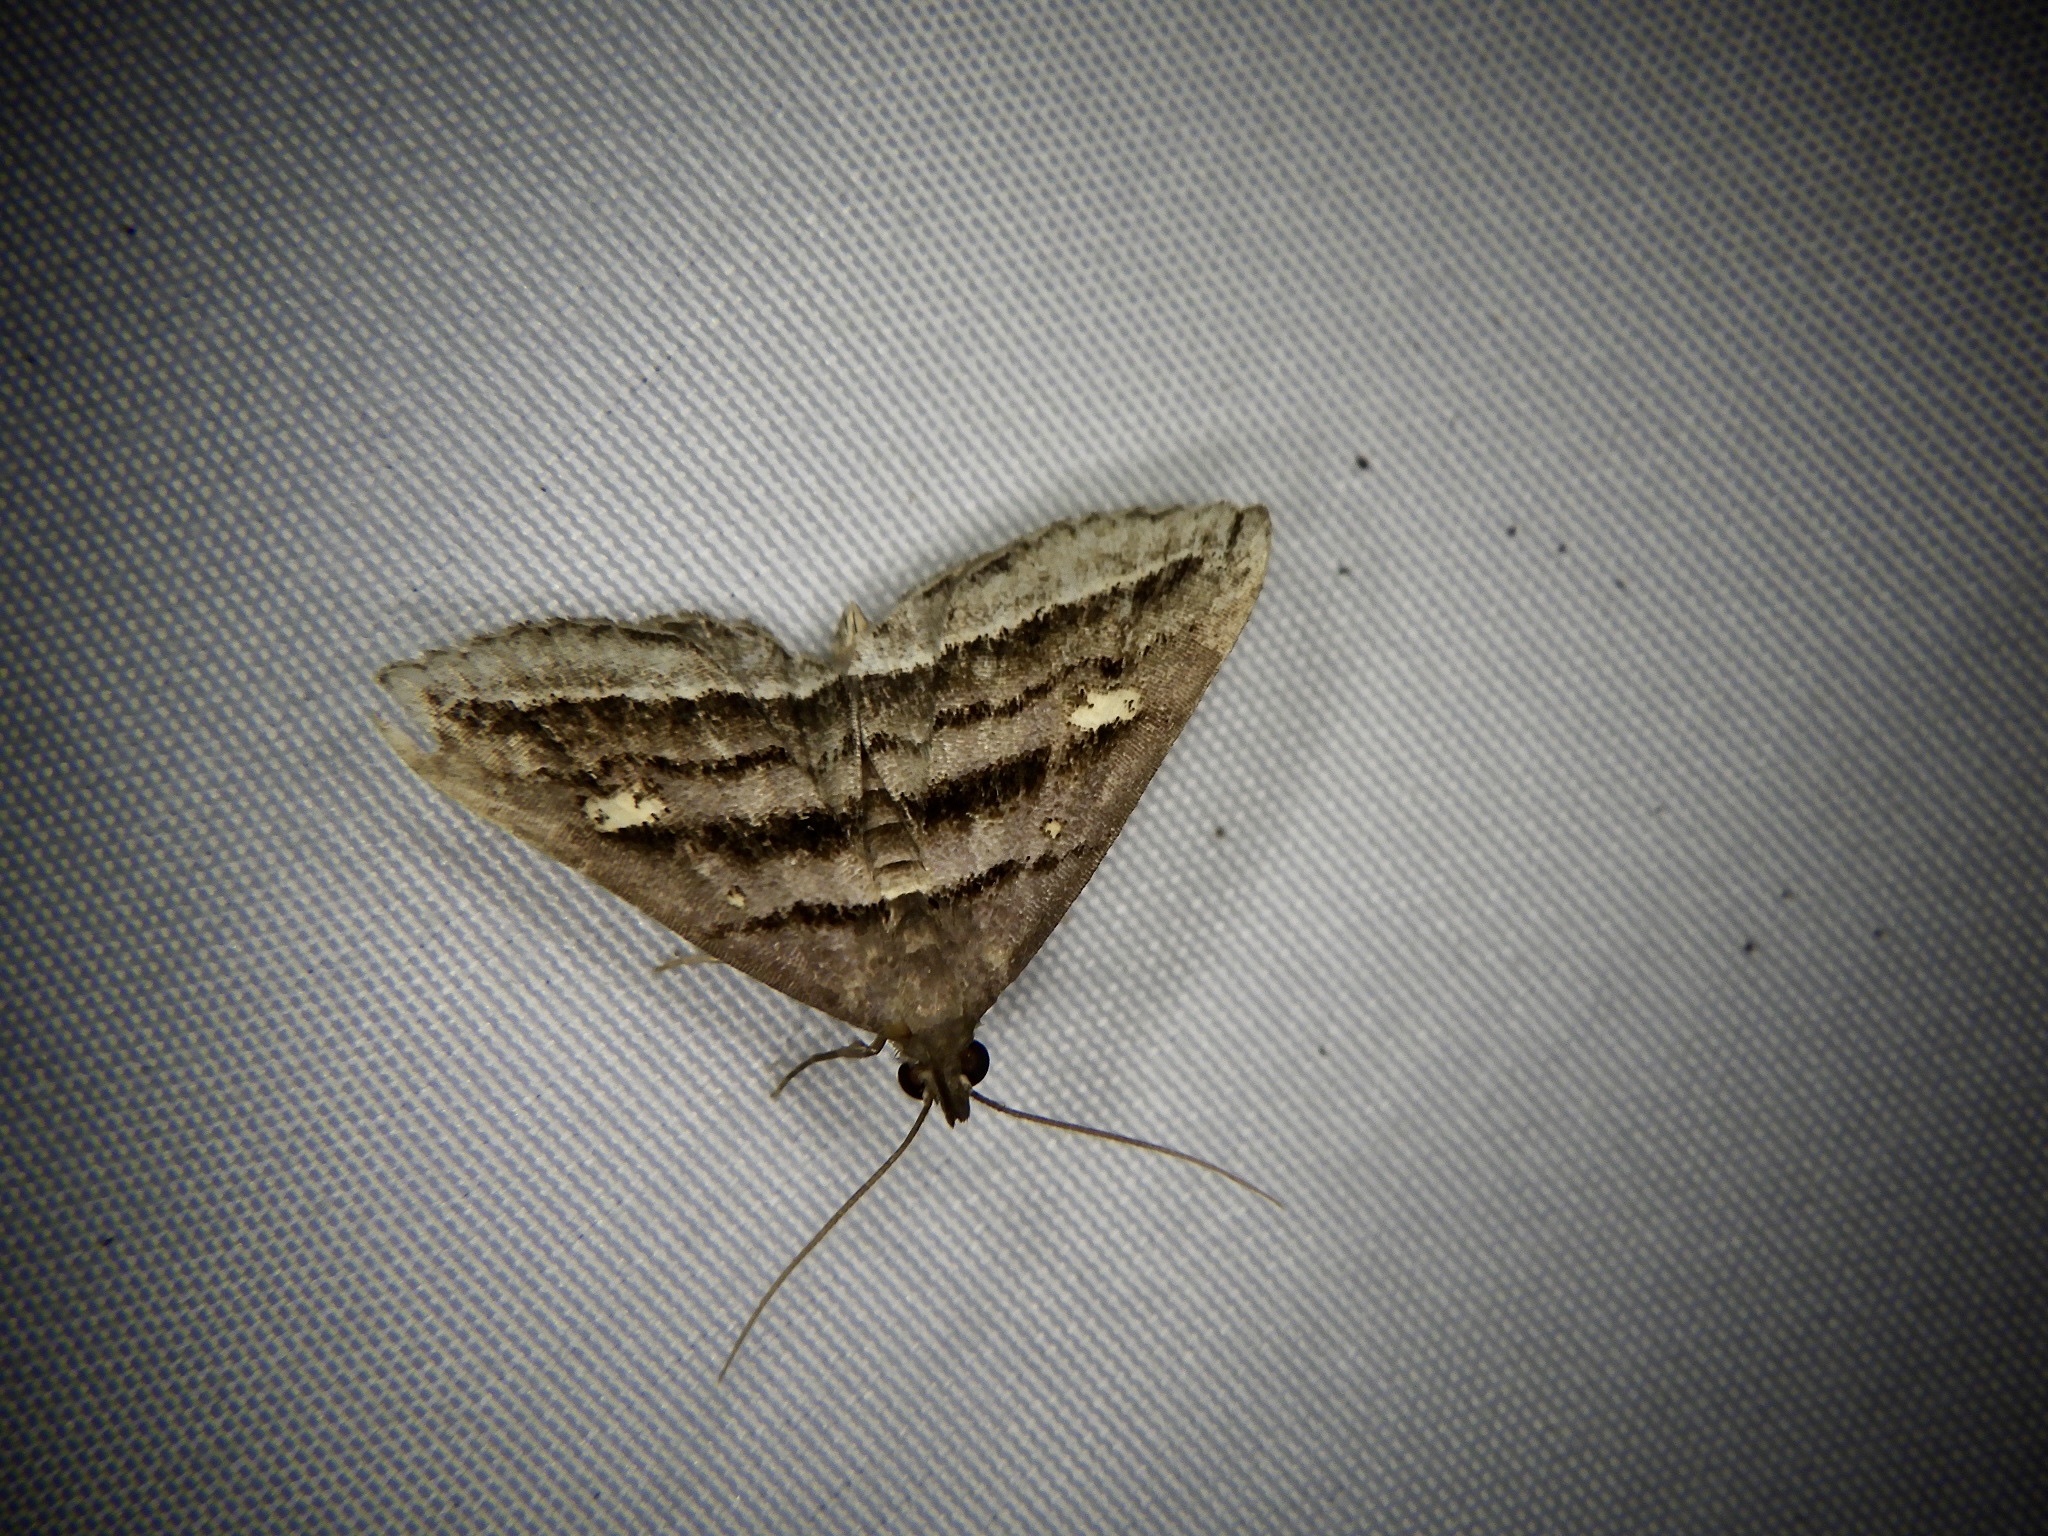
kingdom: Animalia
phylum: Arthropoda
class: Insecta
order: Lepidoptera
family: Erebidae
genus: Paracolax
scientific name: Paracolax pryeri
